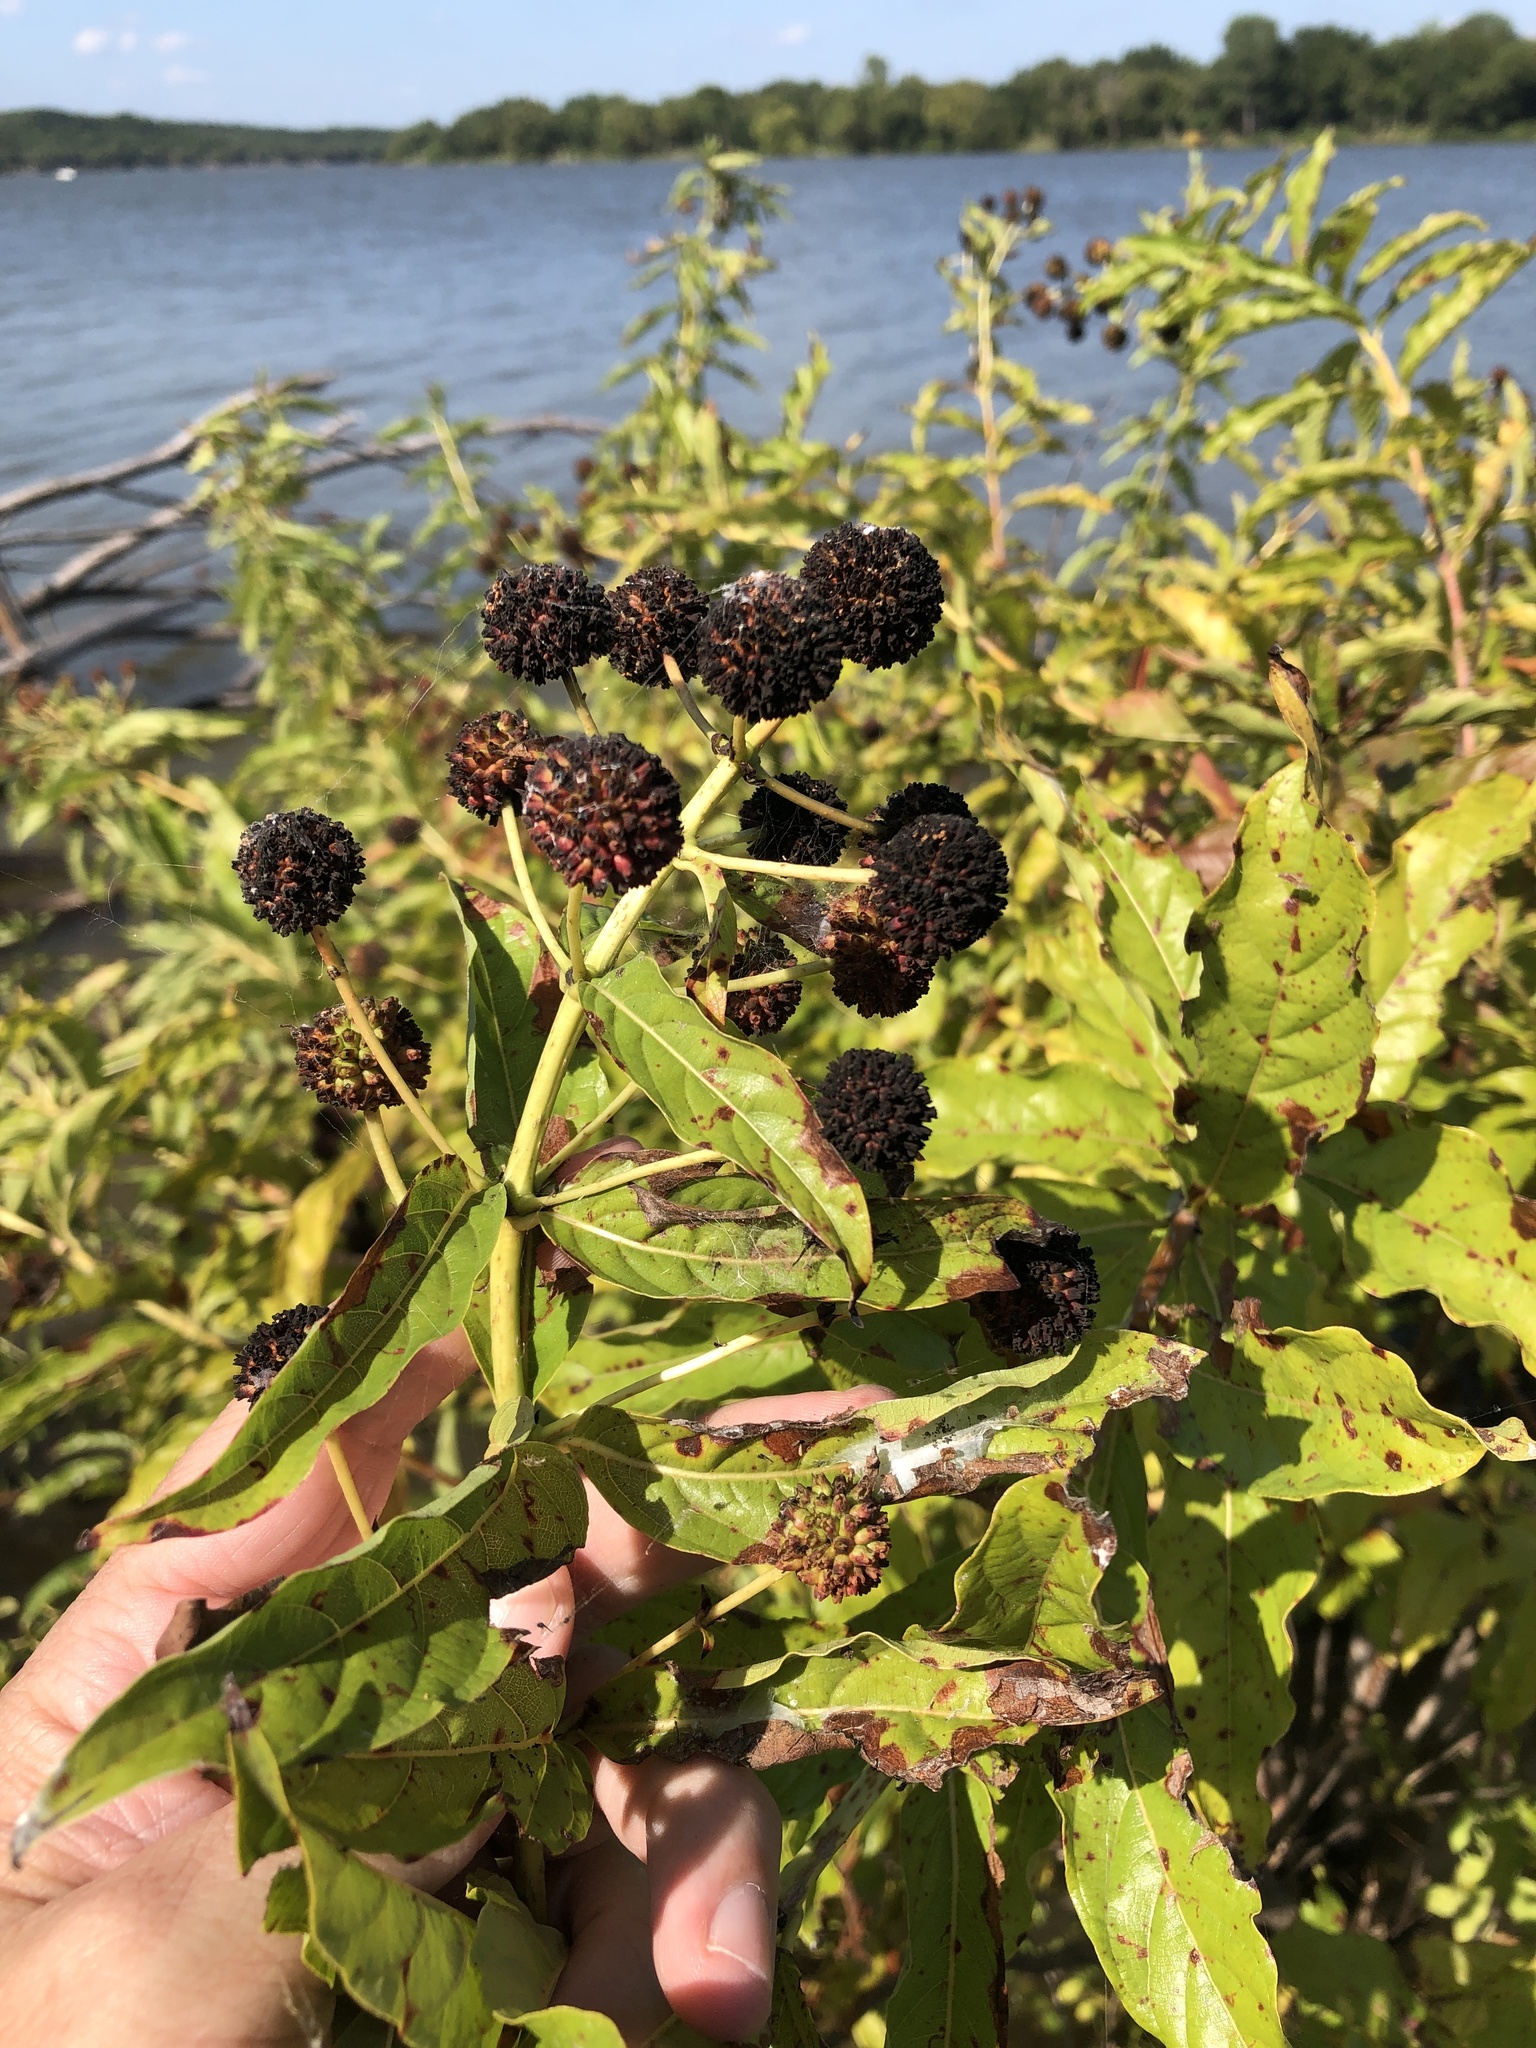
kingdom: Plantae
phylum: Tracheophyta
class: Magnoliopsida
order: Gentianales
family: Rubiaceae
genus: Cephalanthus
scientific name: Cephalanthus occidentalis
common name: Button-willow
